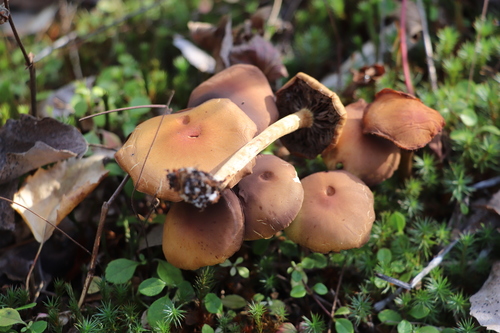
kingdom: Fungi
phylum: Basidiomycota
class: Agaricomycetes
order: Agaricales
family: Strophariaceae
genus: Hypholoma
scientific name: Hypholoma capnoides
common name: Conifer tuft
